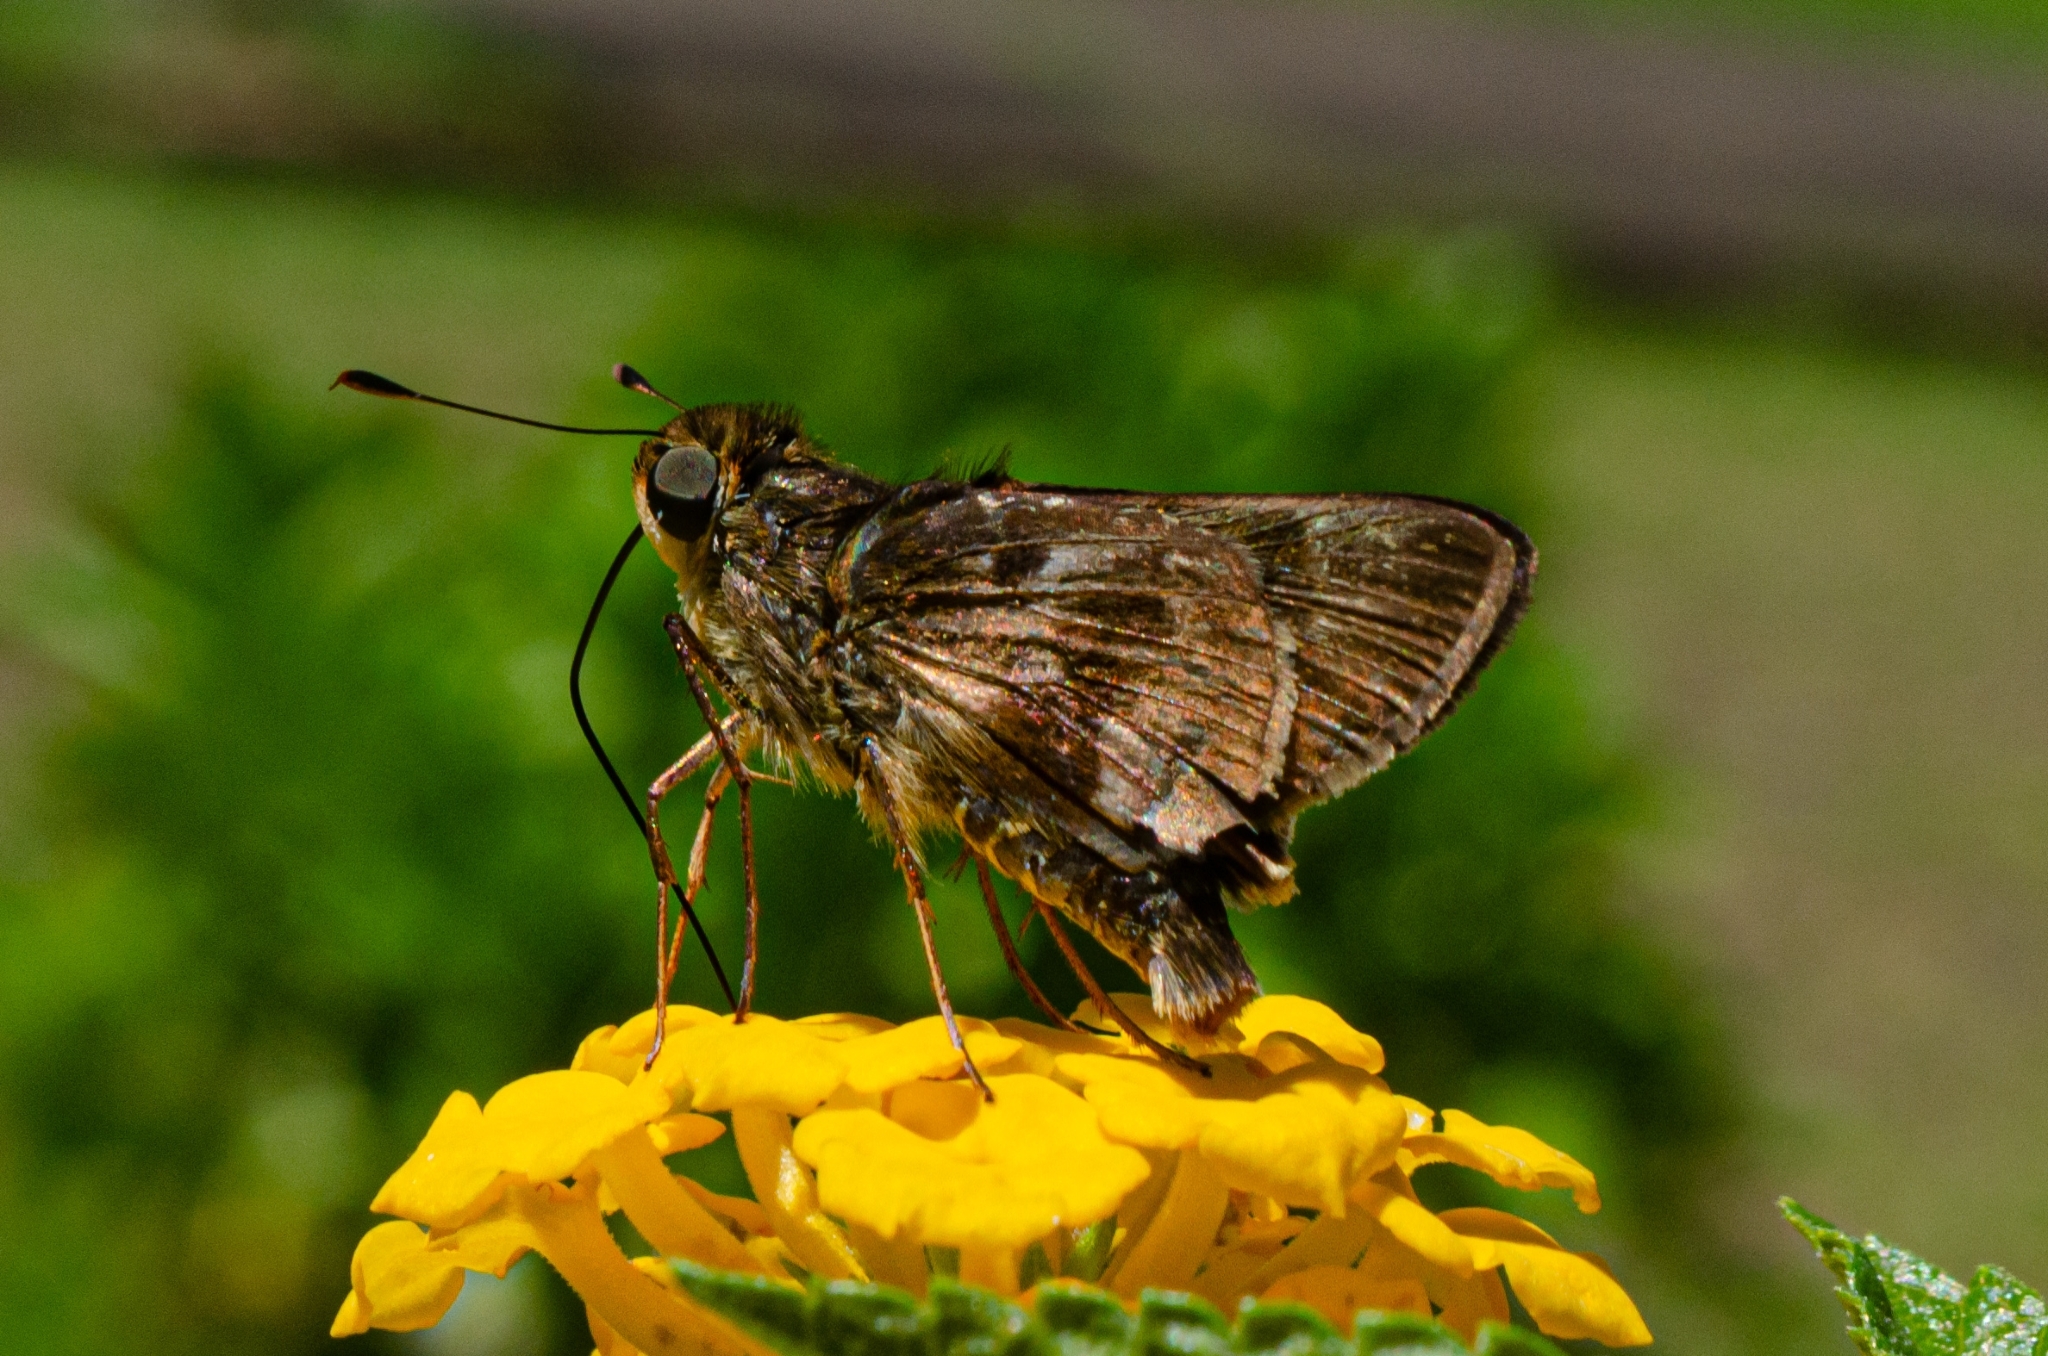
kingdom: Animalia
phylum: Arthropoda
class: Insecta
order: Lepidoptera
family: Hesperiidae
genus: Nyctelius
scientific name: Nyctelius nyctelius
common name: Violet-banded skipper
